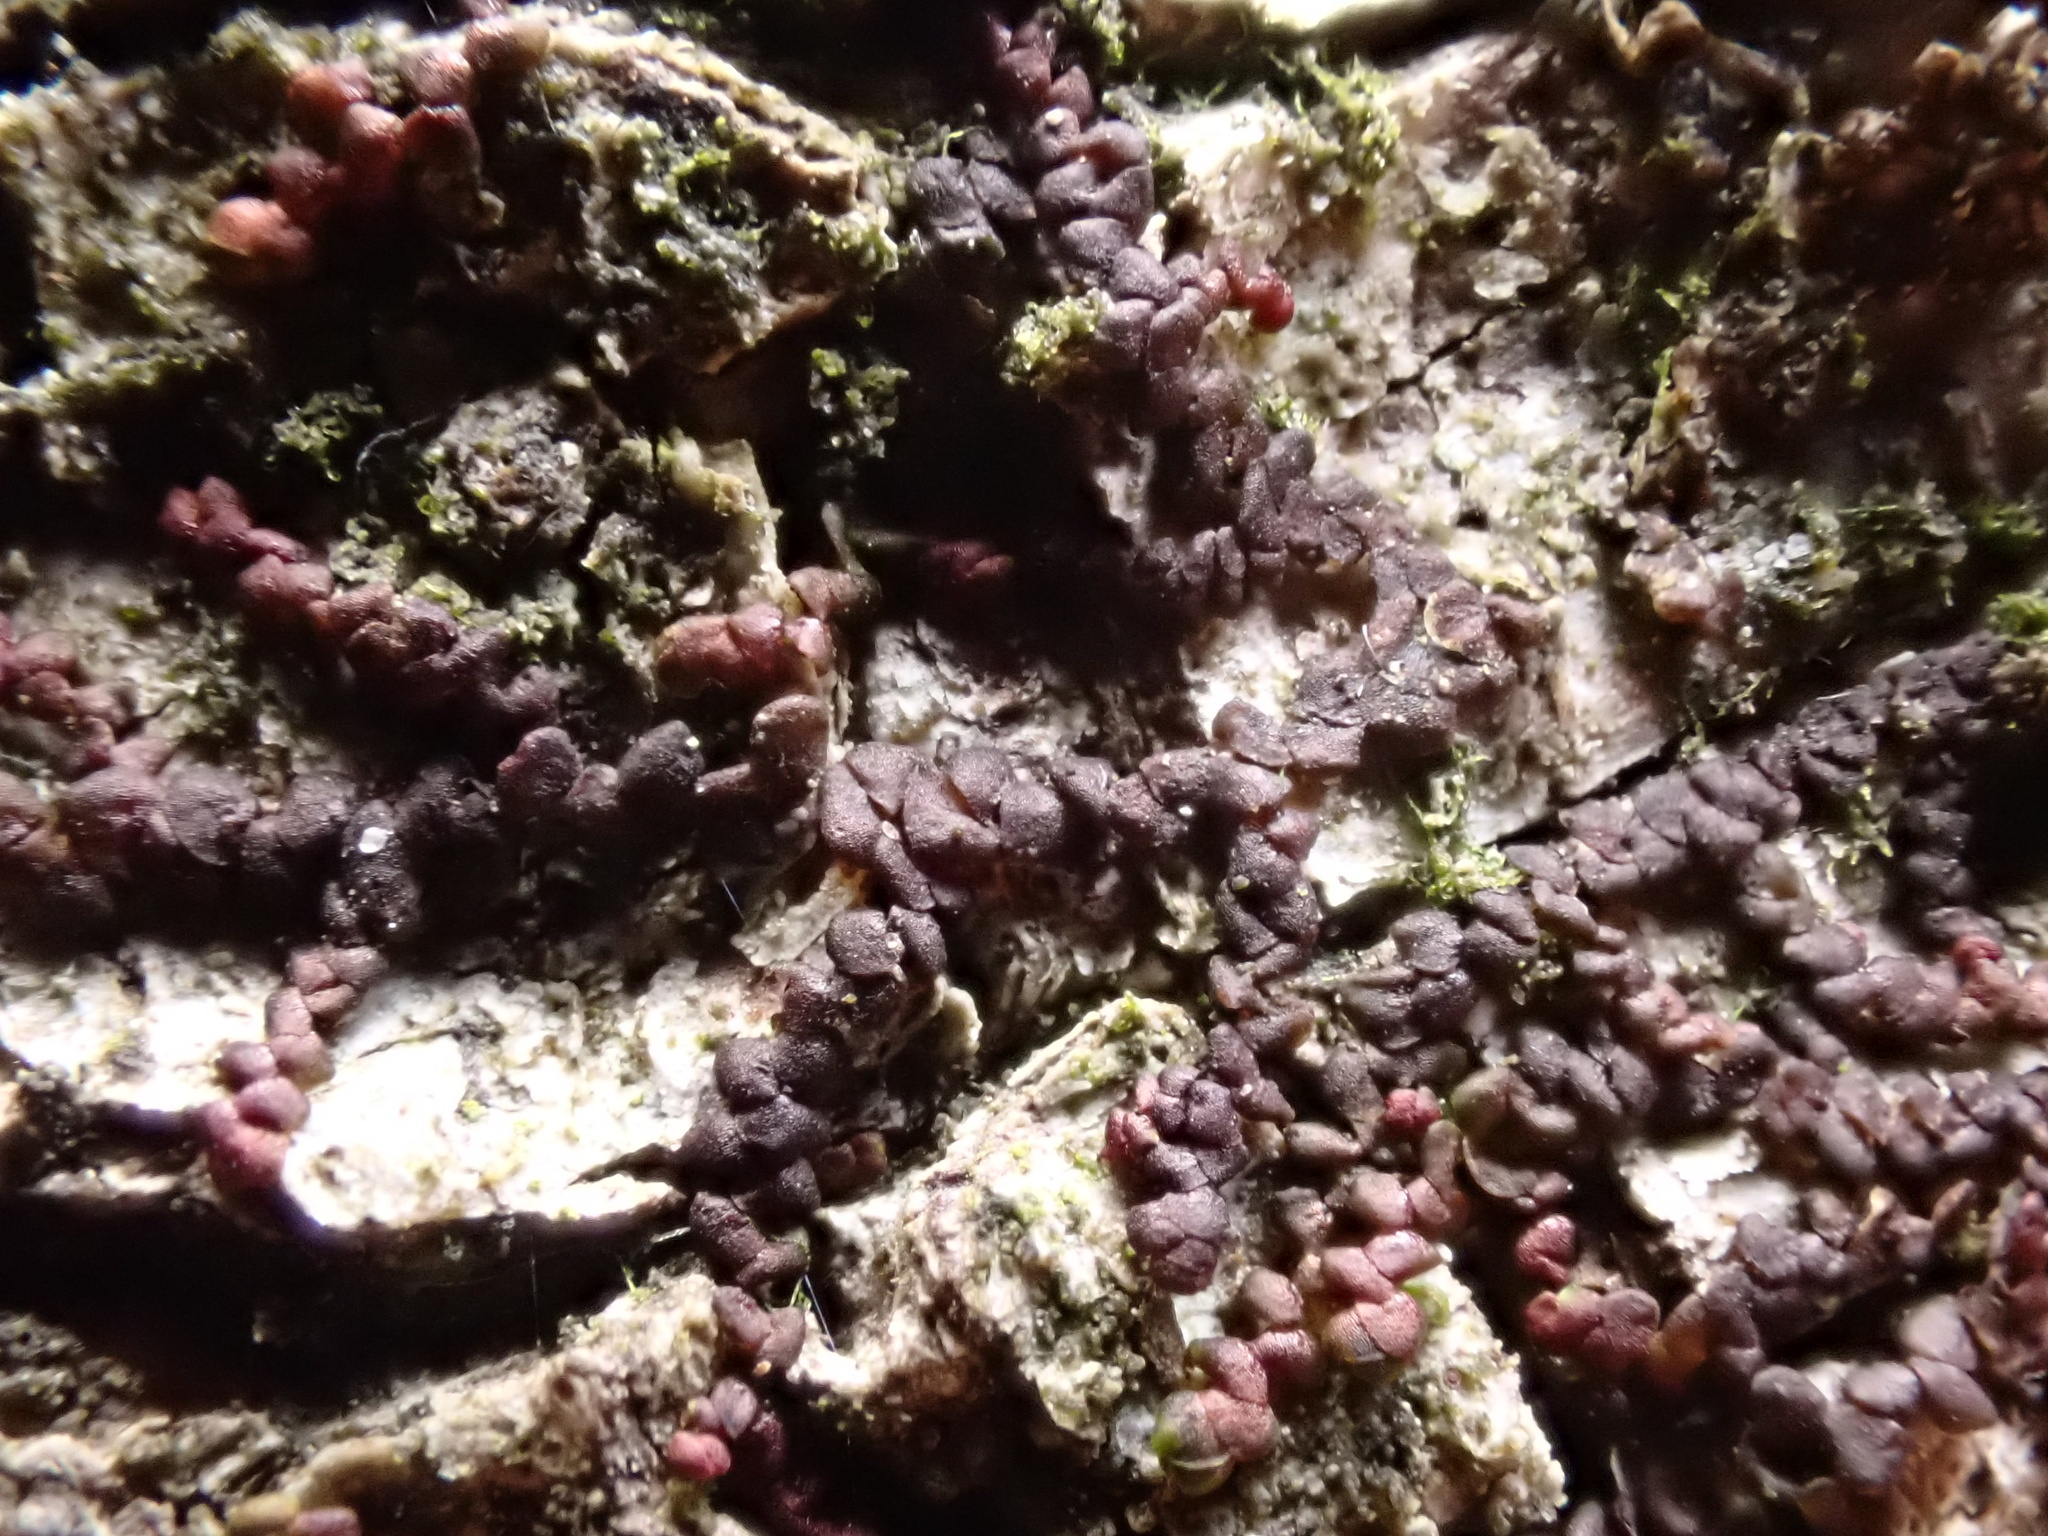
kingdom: Plantae
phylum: Marchantiophyta
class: Jungermanniopsida
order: Porellales
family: Frullaniaceae
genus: Frullania
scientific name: Frullania dilatata
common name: Dilated scalewort
